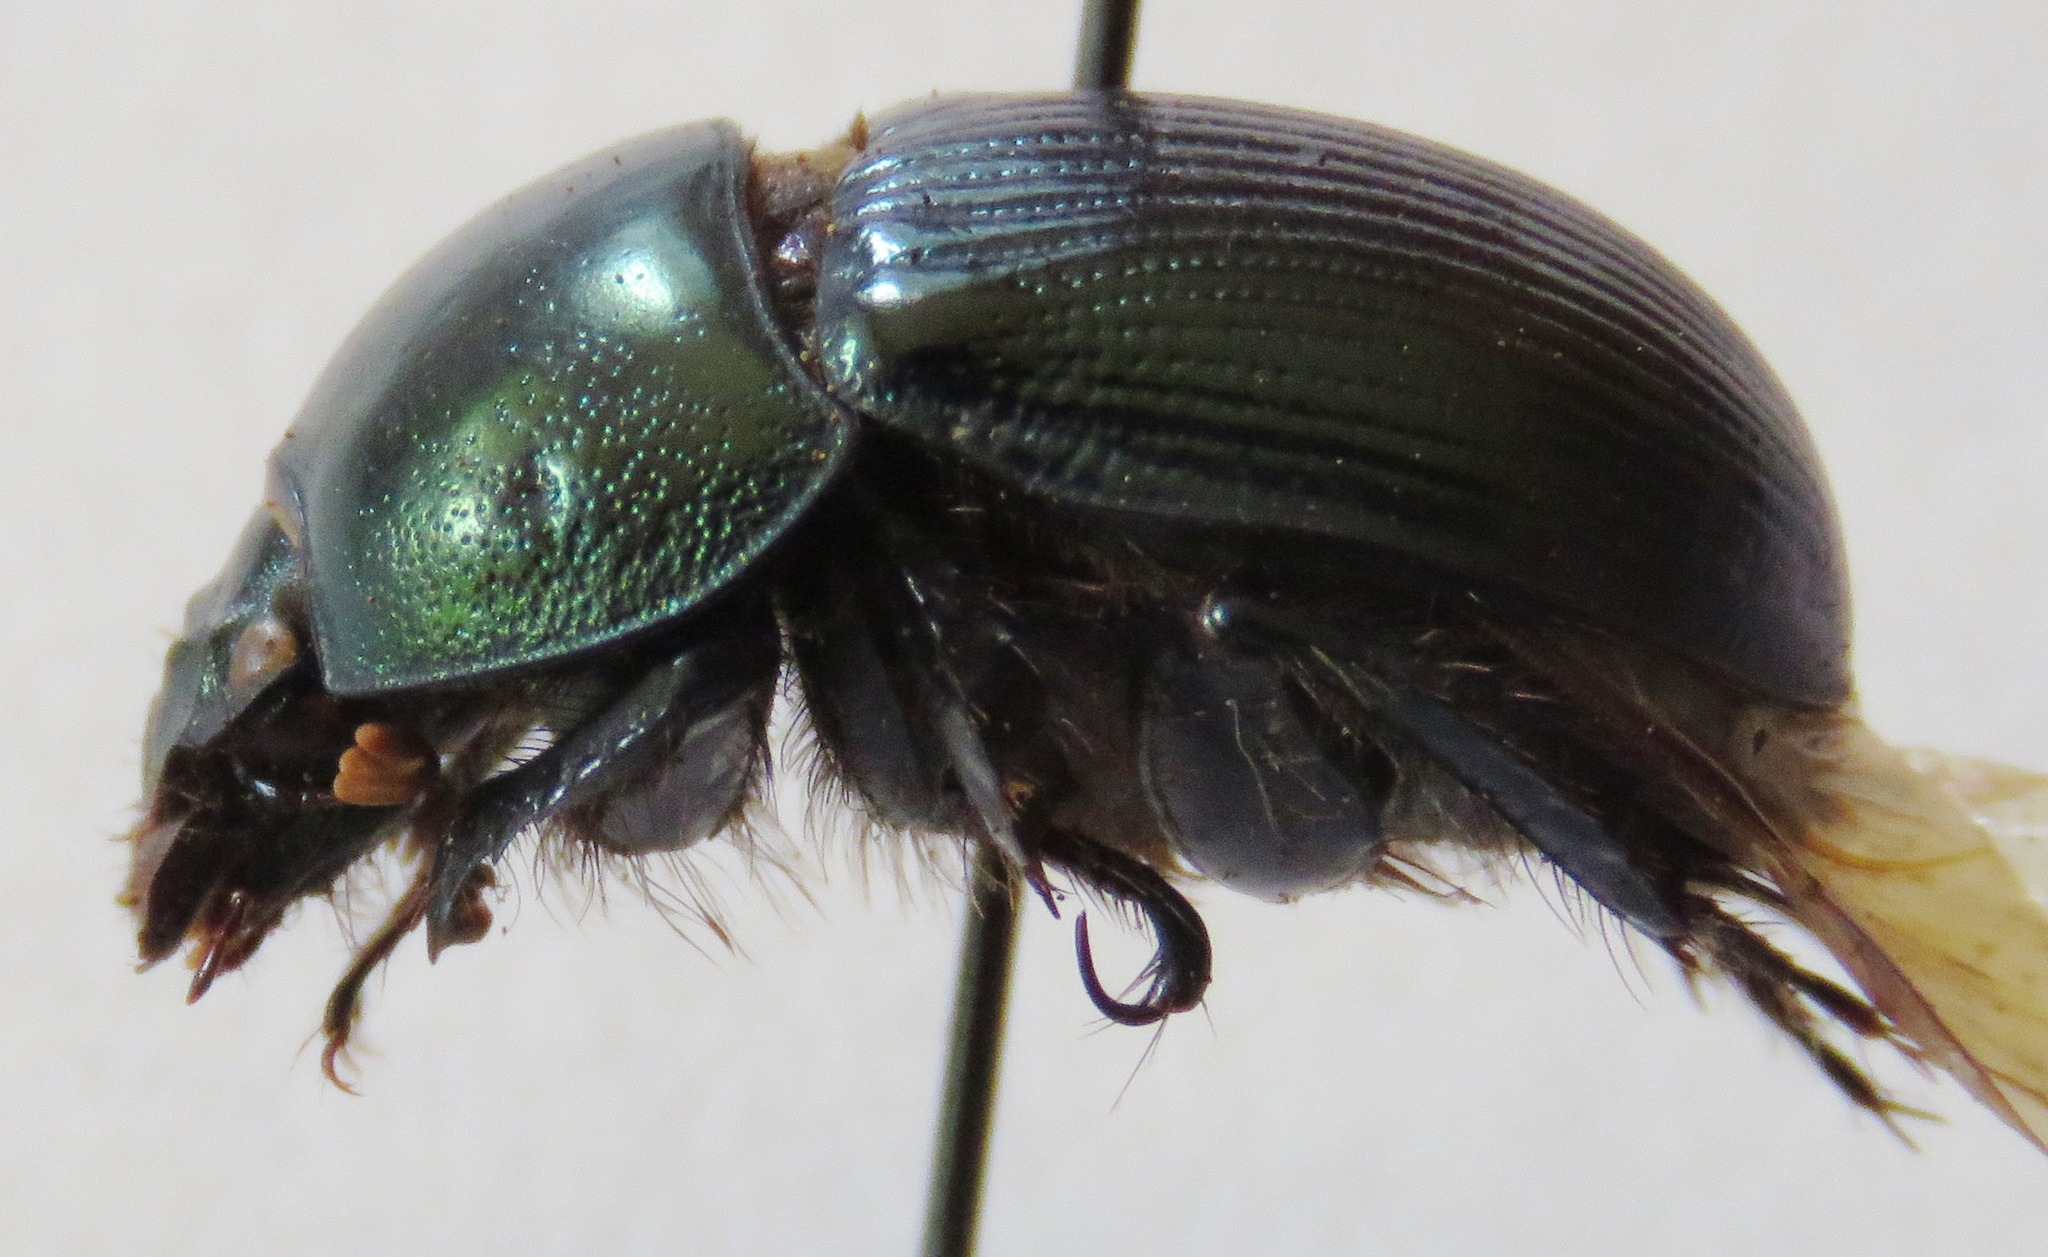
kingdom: Animalia
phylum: Arthropoda
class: Insecta
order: Coleoptera
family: Geotrupidae
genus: Geotrupes
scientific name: Geotrupes splendidus
